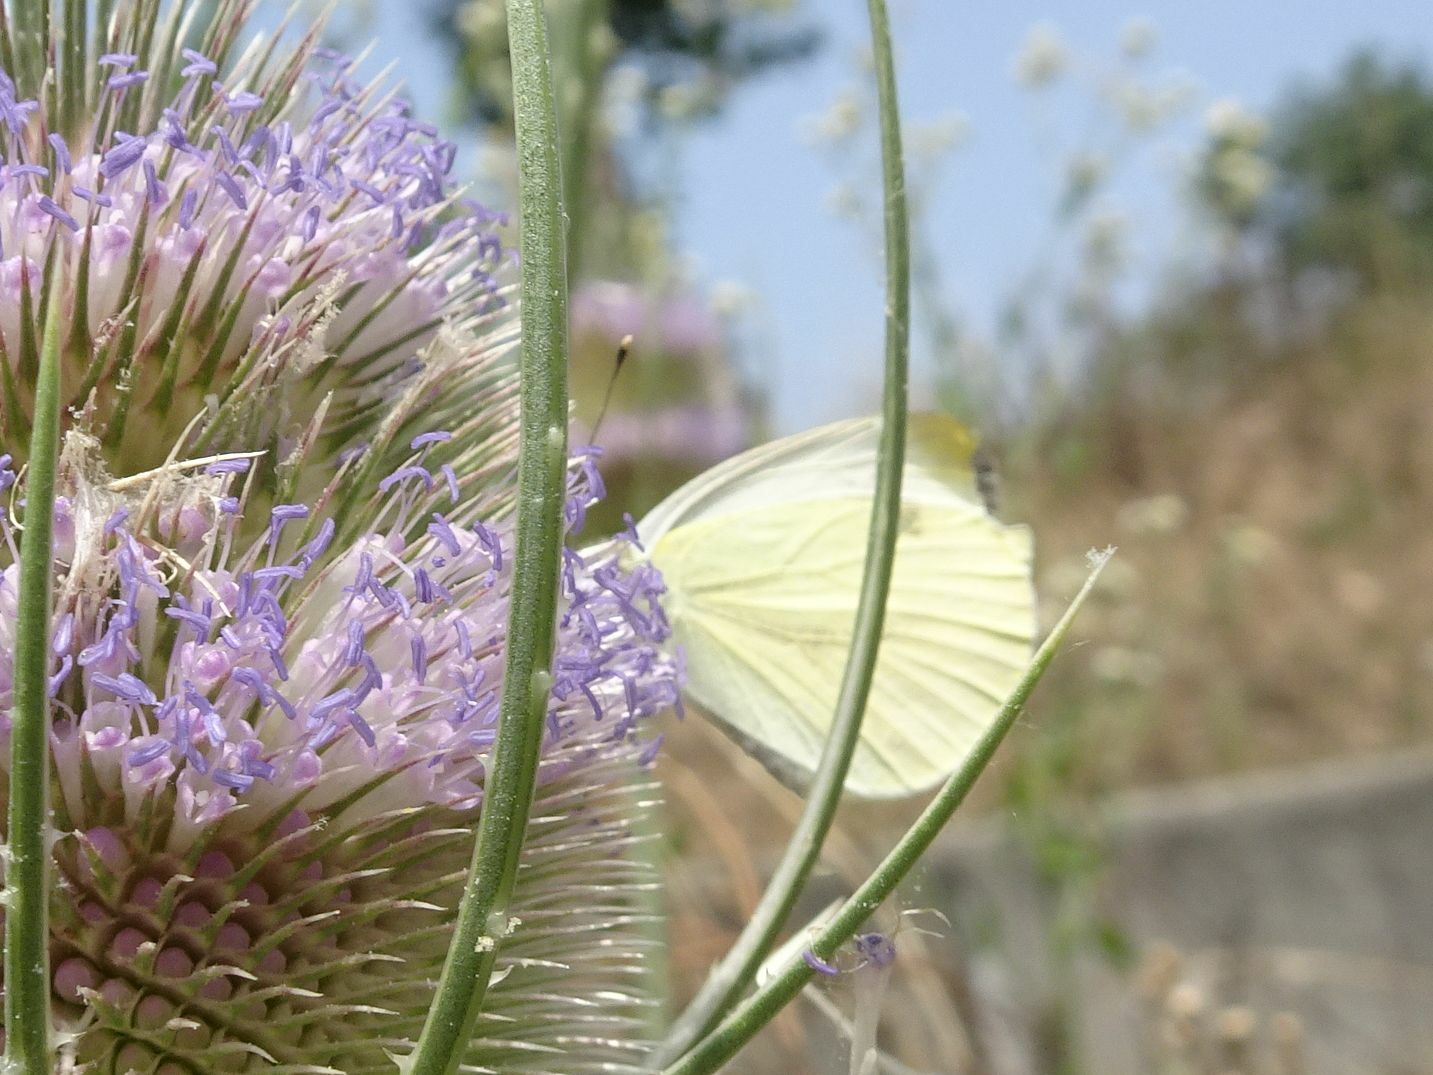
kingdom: Animalia
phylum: Arthropoda
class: Insecta
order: Lepidoptera
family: Pieridae
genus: Pieris
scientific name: Pieris napi
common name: Green-veined white
